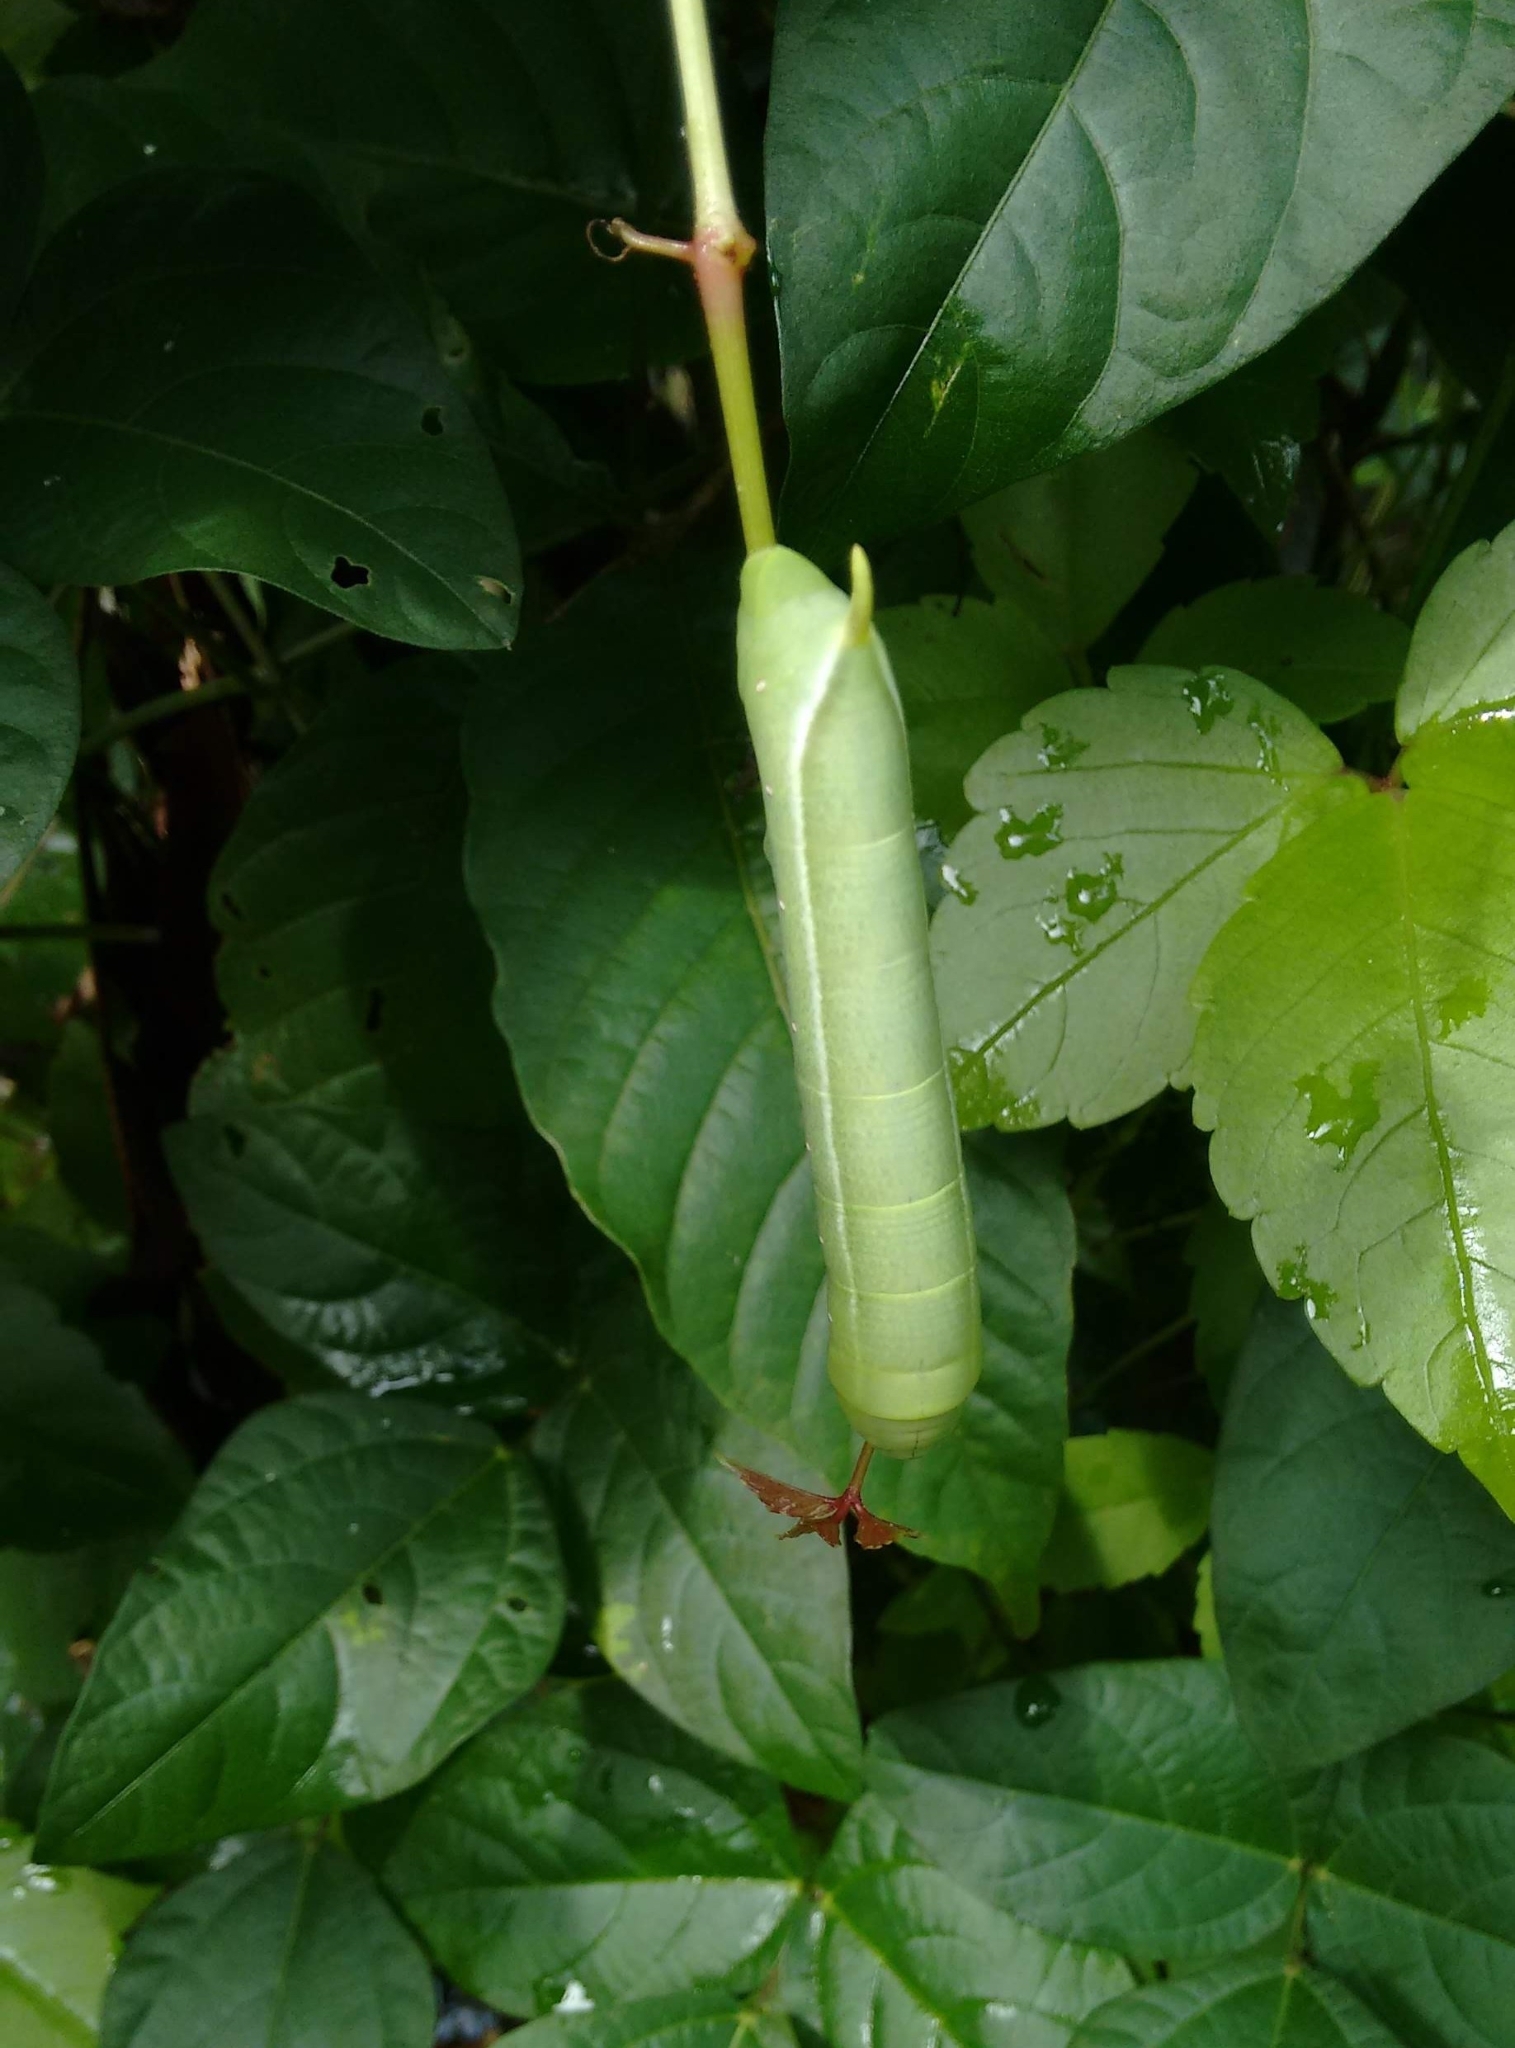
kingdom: Animalia
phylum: Arthropoda
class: Insecta
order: Lepidoptera
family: Sphingidae
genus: Theretra
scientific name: Theretra rhesus
